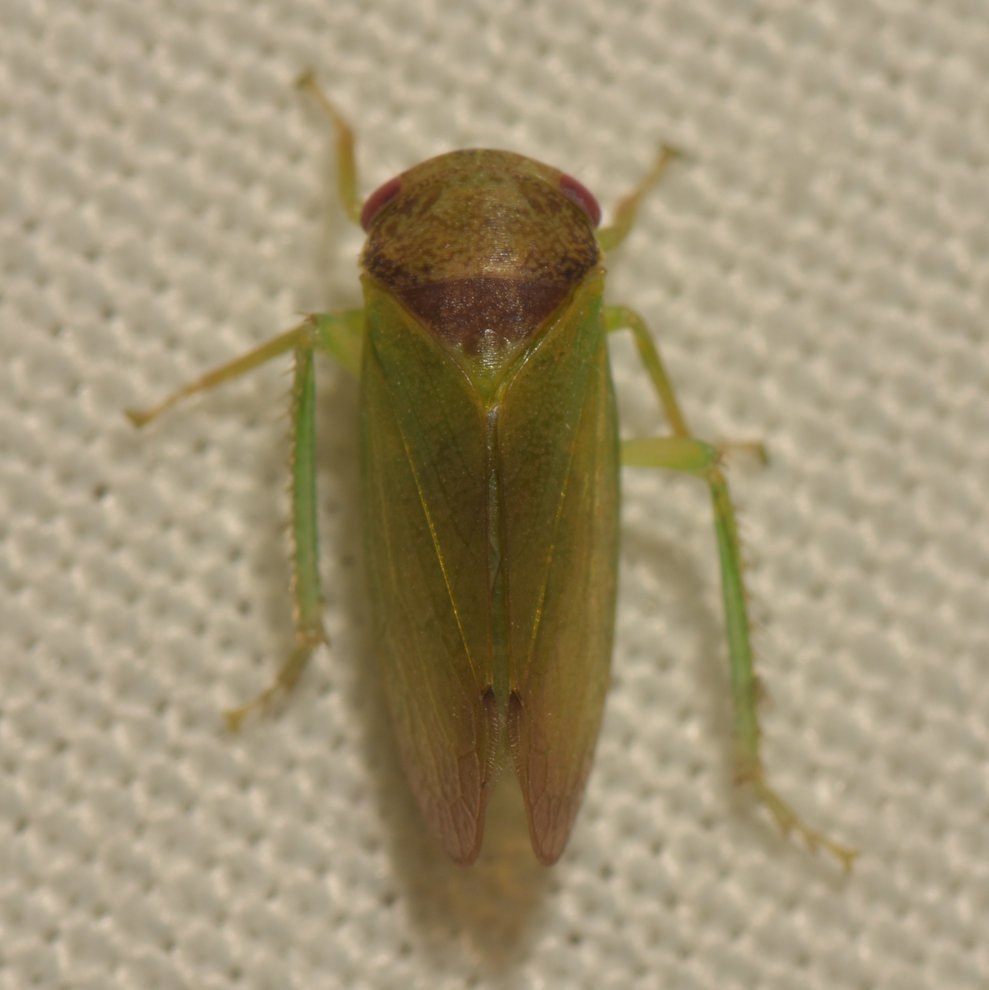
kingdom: Animalia
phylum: Arthropoda
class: Insecta
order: Hemiptera
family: Cicadellidae
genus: Iassus
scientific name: Iassus lanio
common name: Leafhopper
